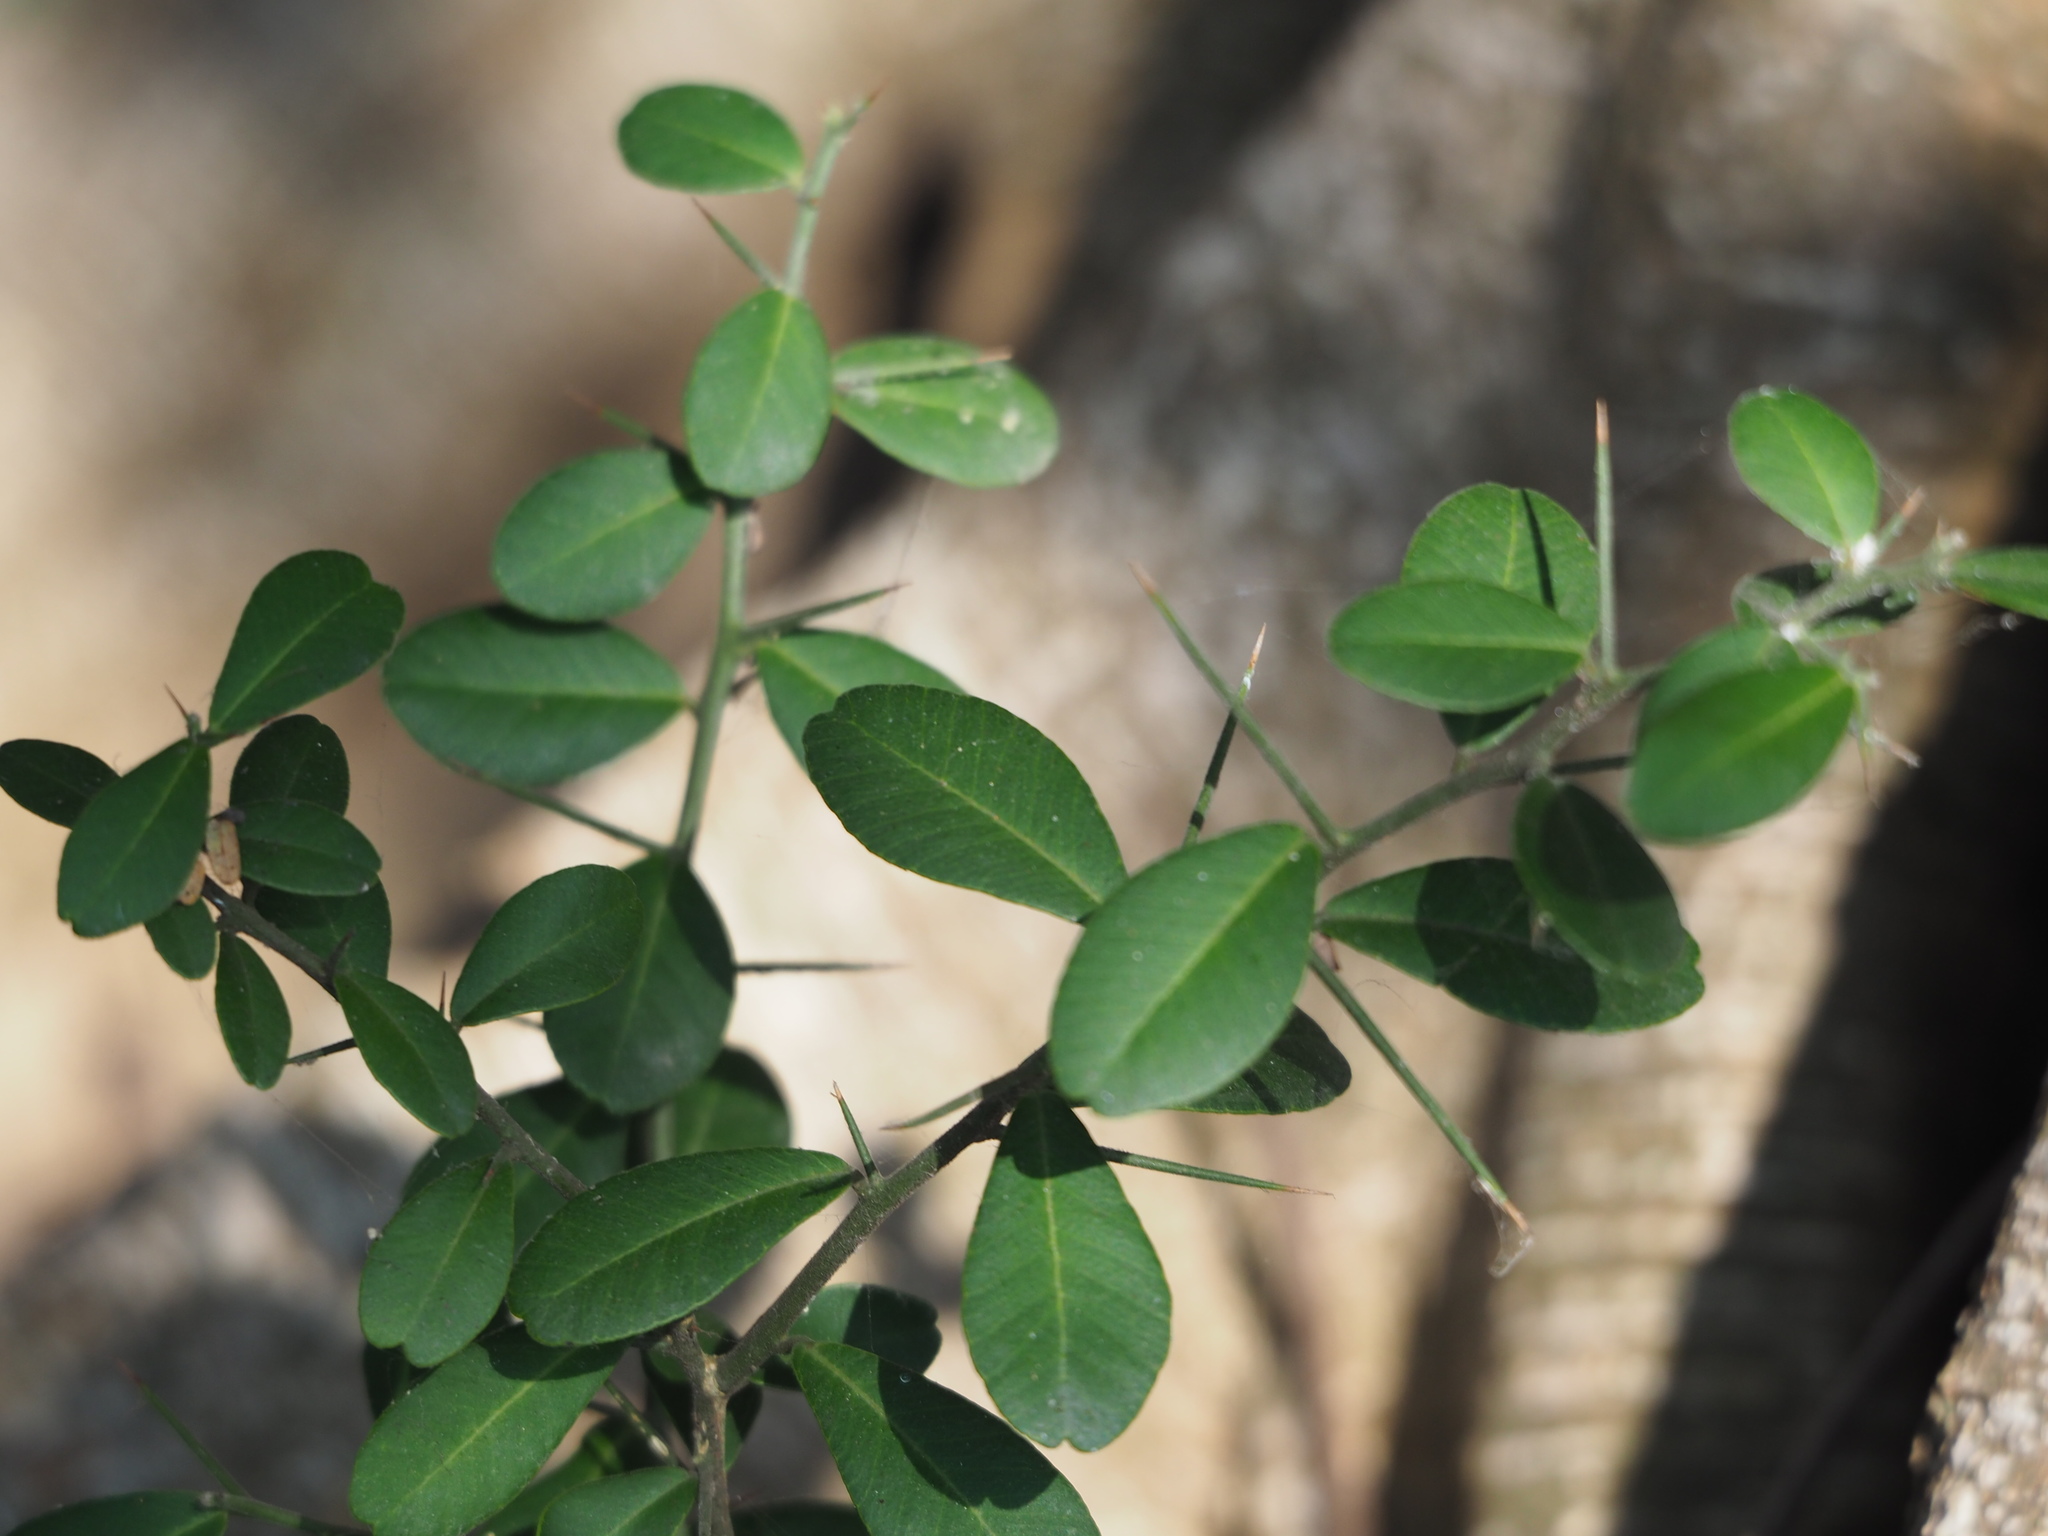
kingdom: Plantae
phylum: Tracheophyta
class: Magnoliopsida
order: Sapindales
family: Rutaceae
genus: Atalantia
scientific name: Atalantia buxifolia
